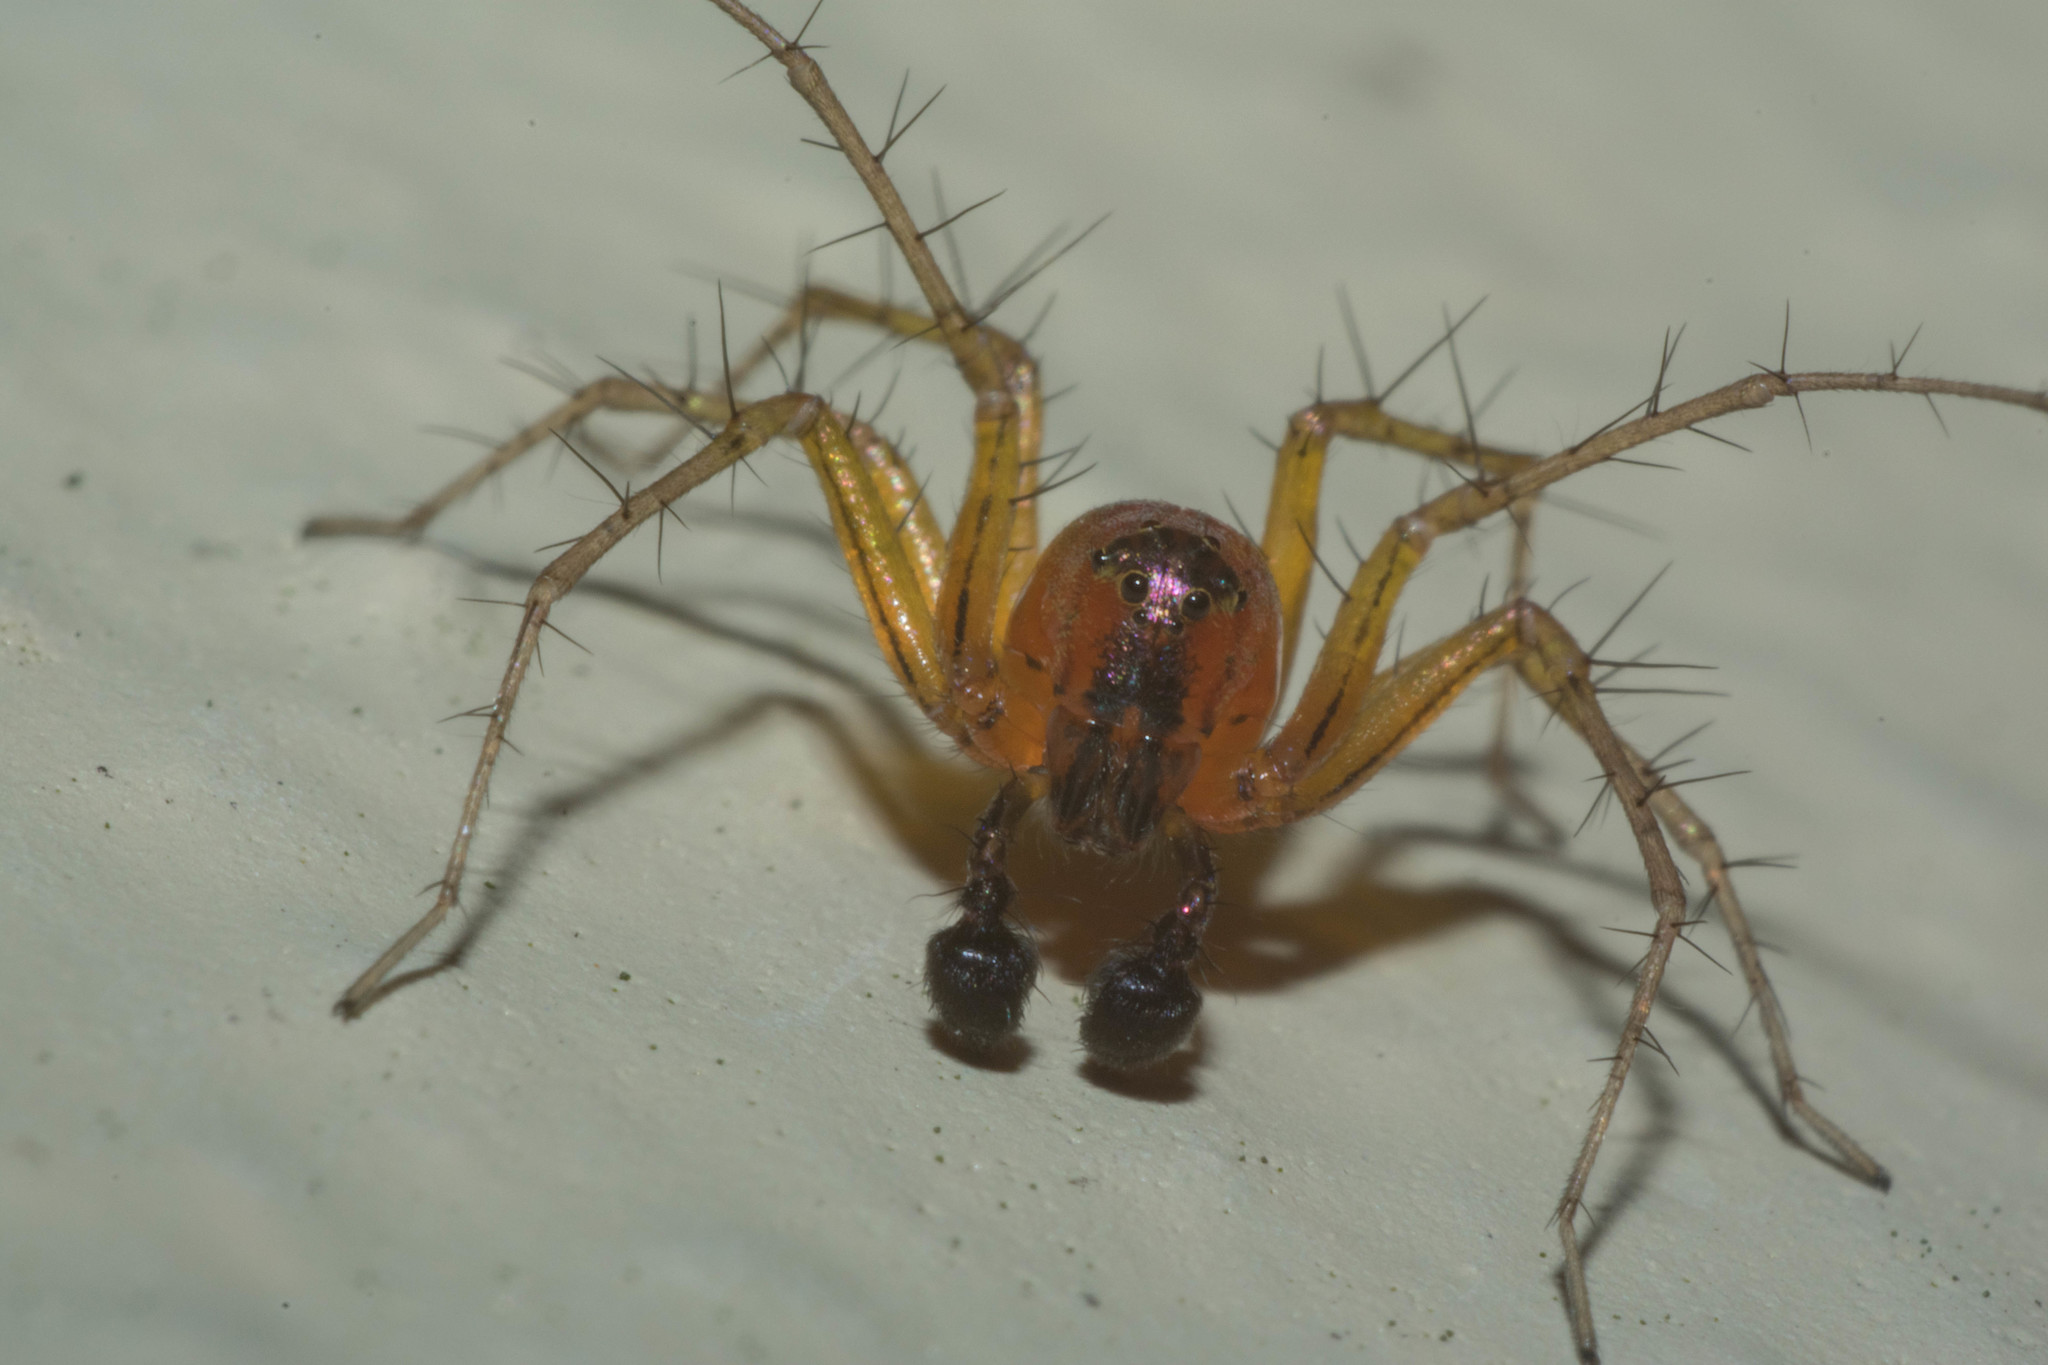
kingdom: Animalia
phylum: Arthropoda
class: Arachnida
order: Araneae
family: Oxyopidae
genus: Oxyopes
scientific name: Oxyopes salticus
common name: Lynx spiders
